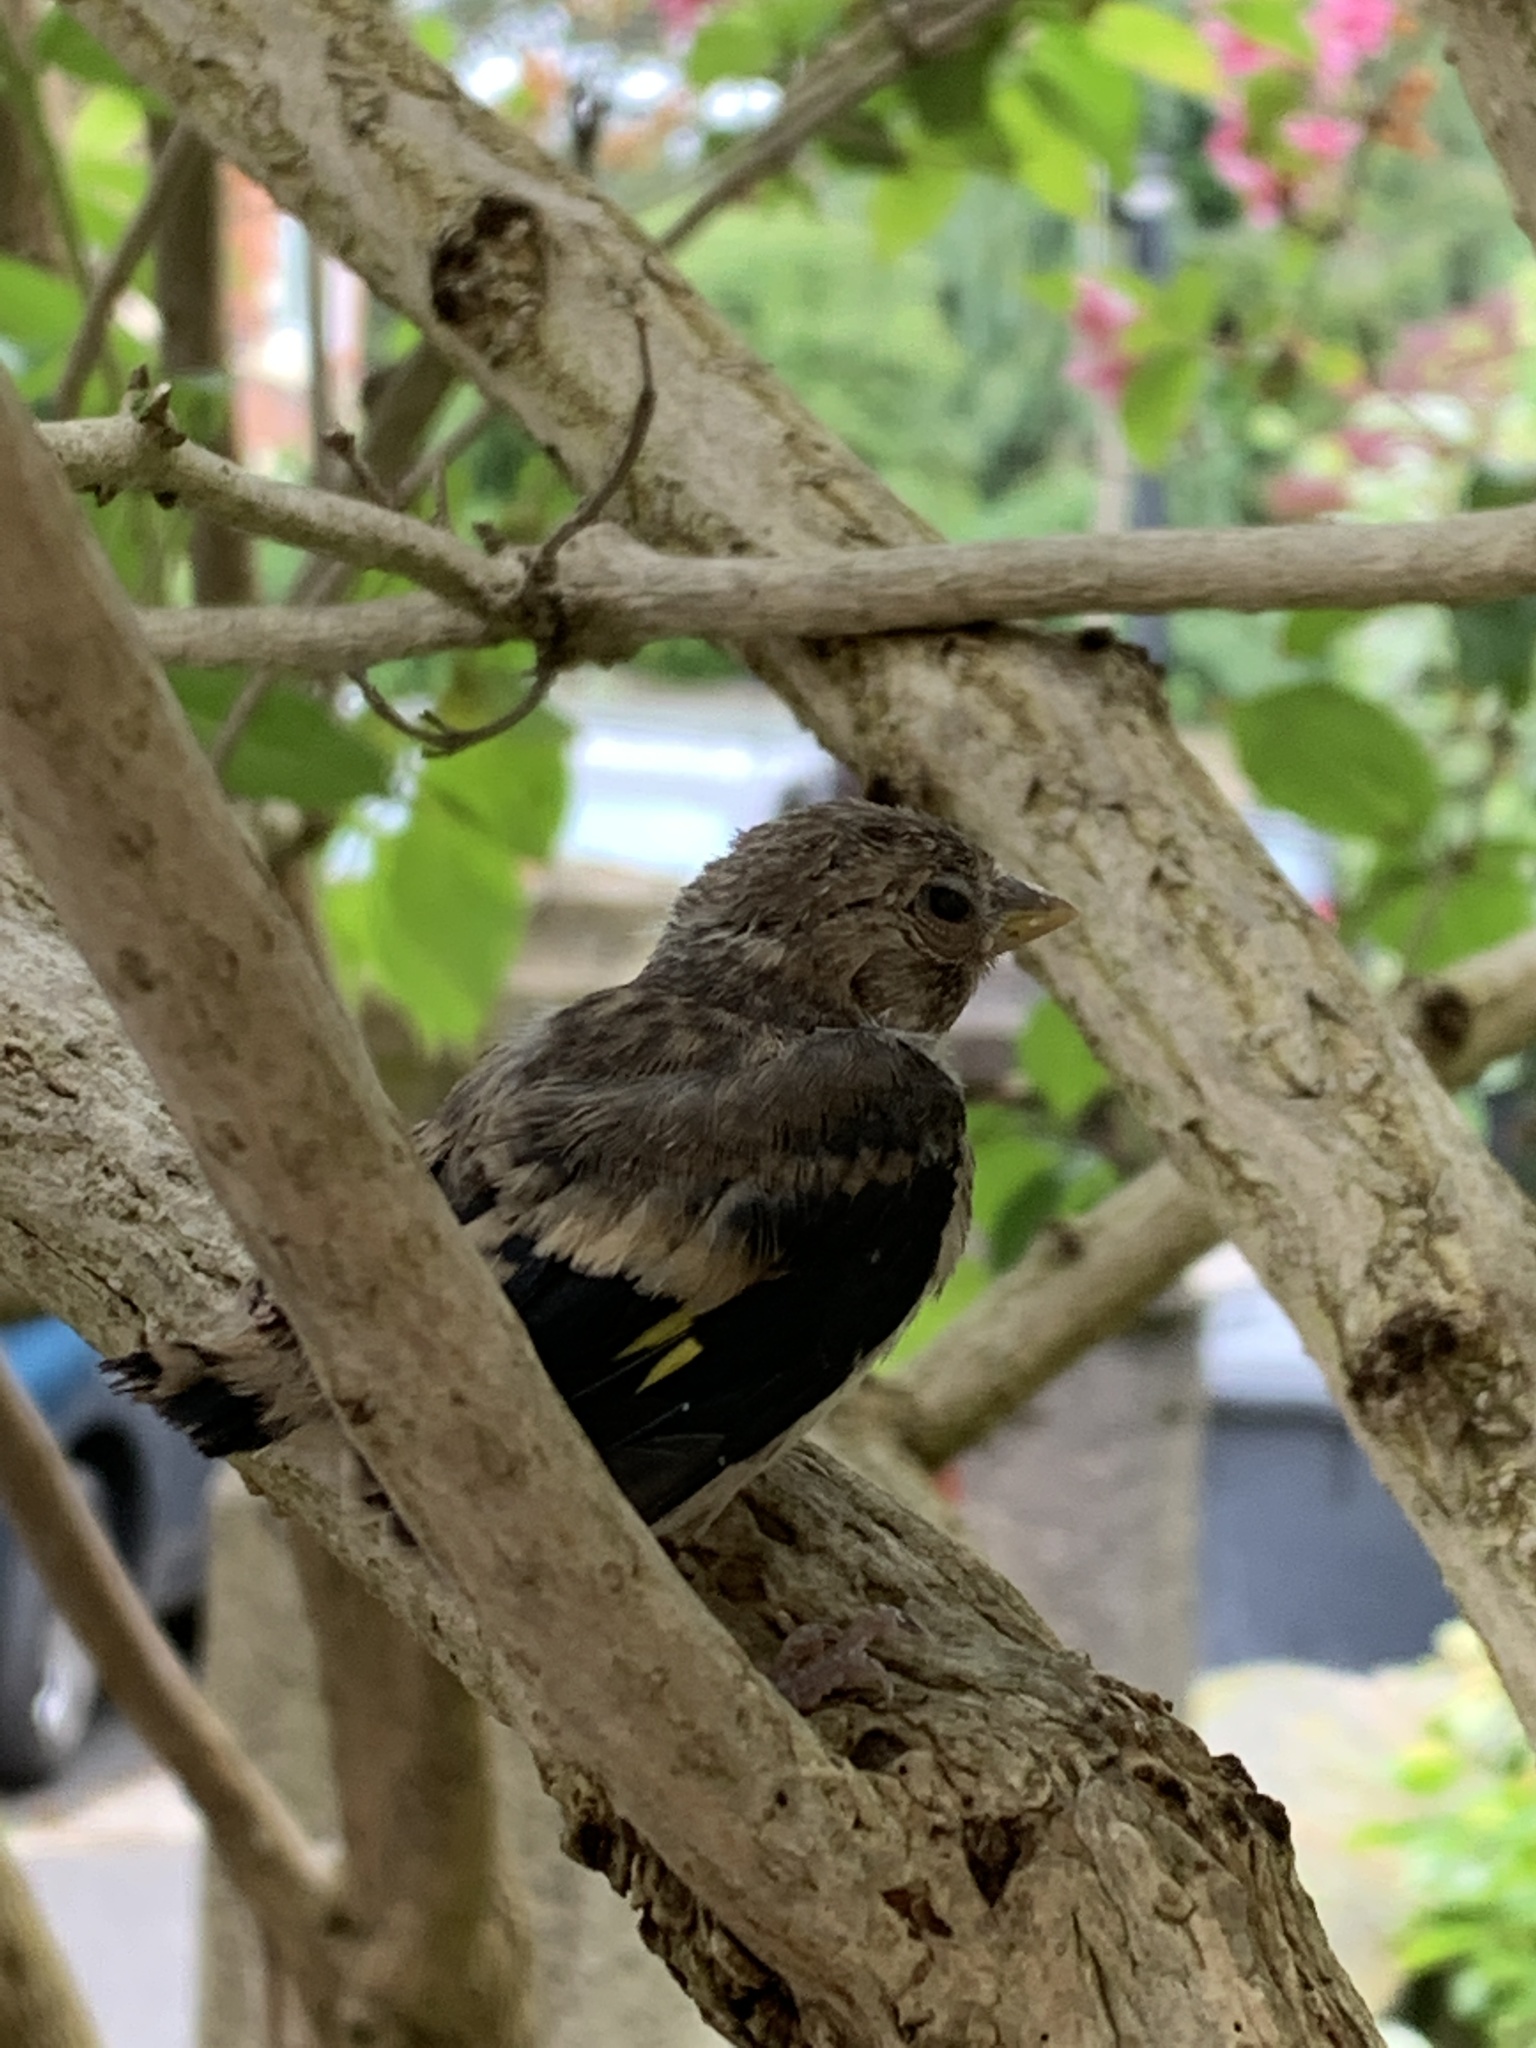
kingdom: Animalia
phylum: Chordata
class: Aves
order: Passeriformes
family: Fringillidae
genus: Carduelis
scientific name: Carduelis carduelis
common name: European goldfinch
